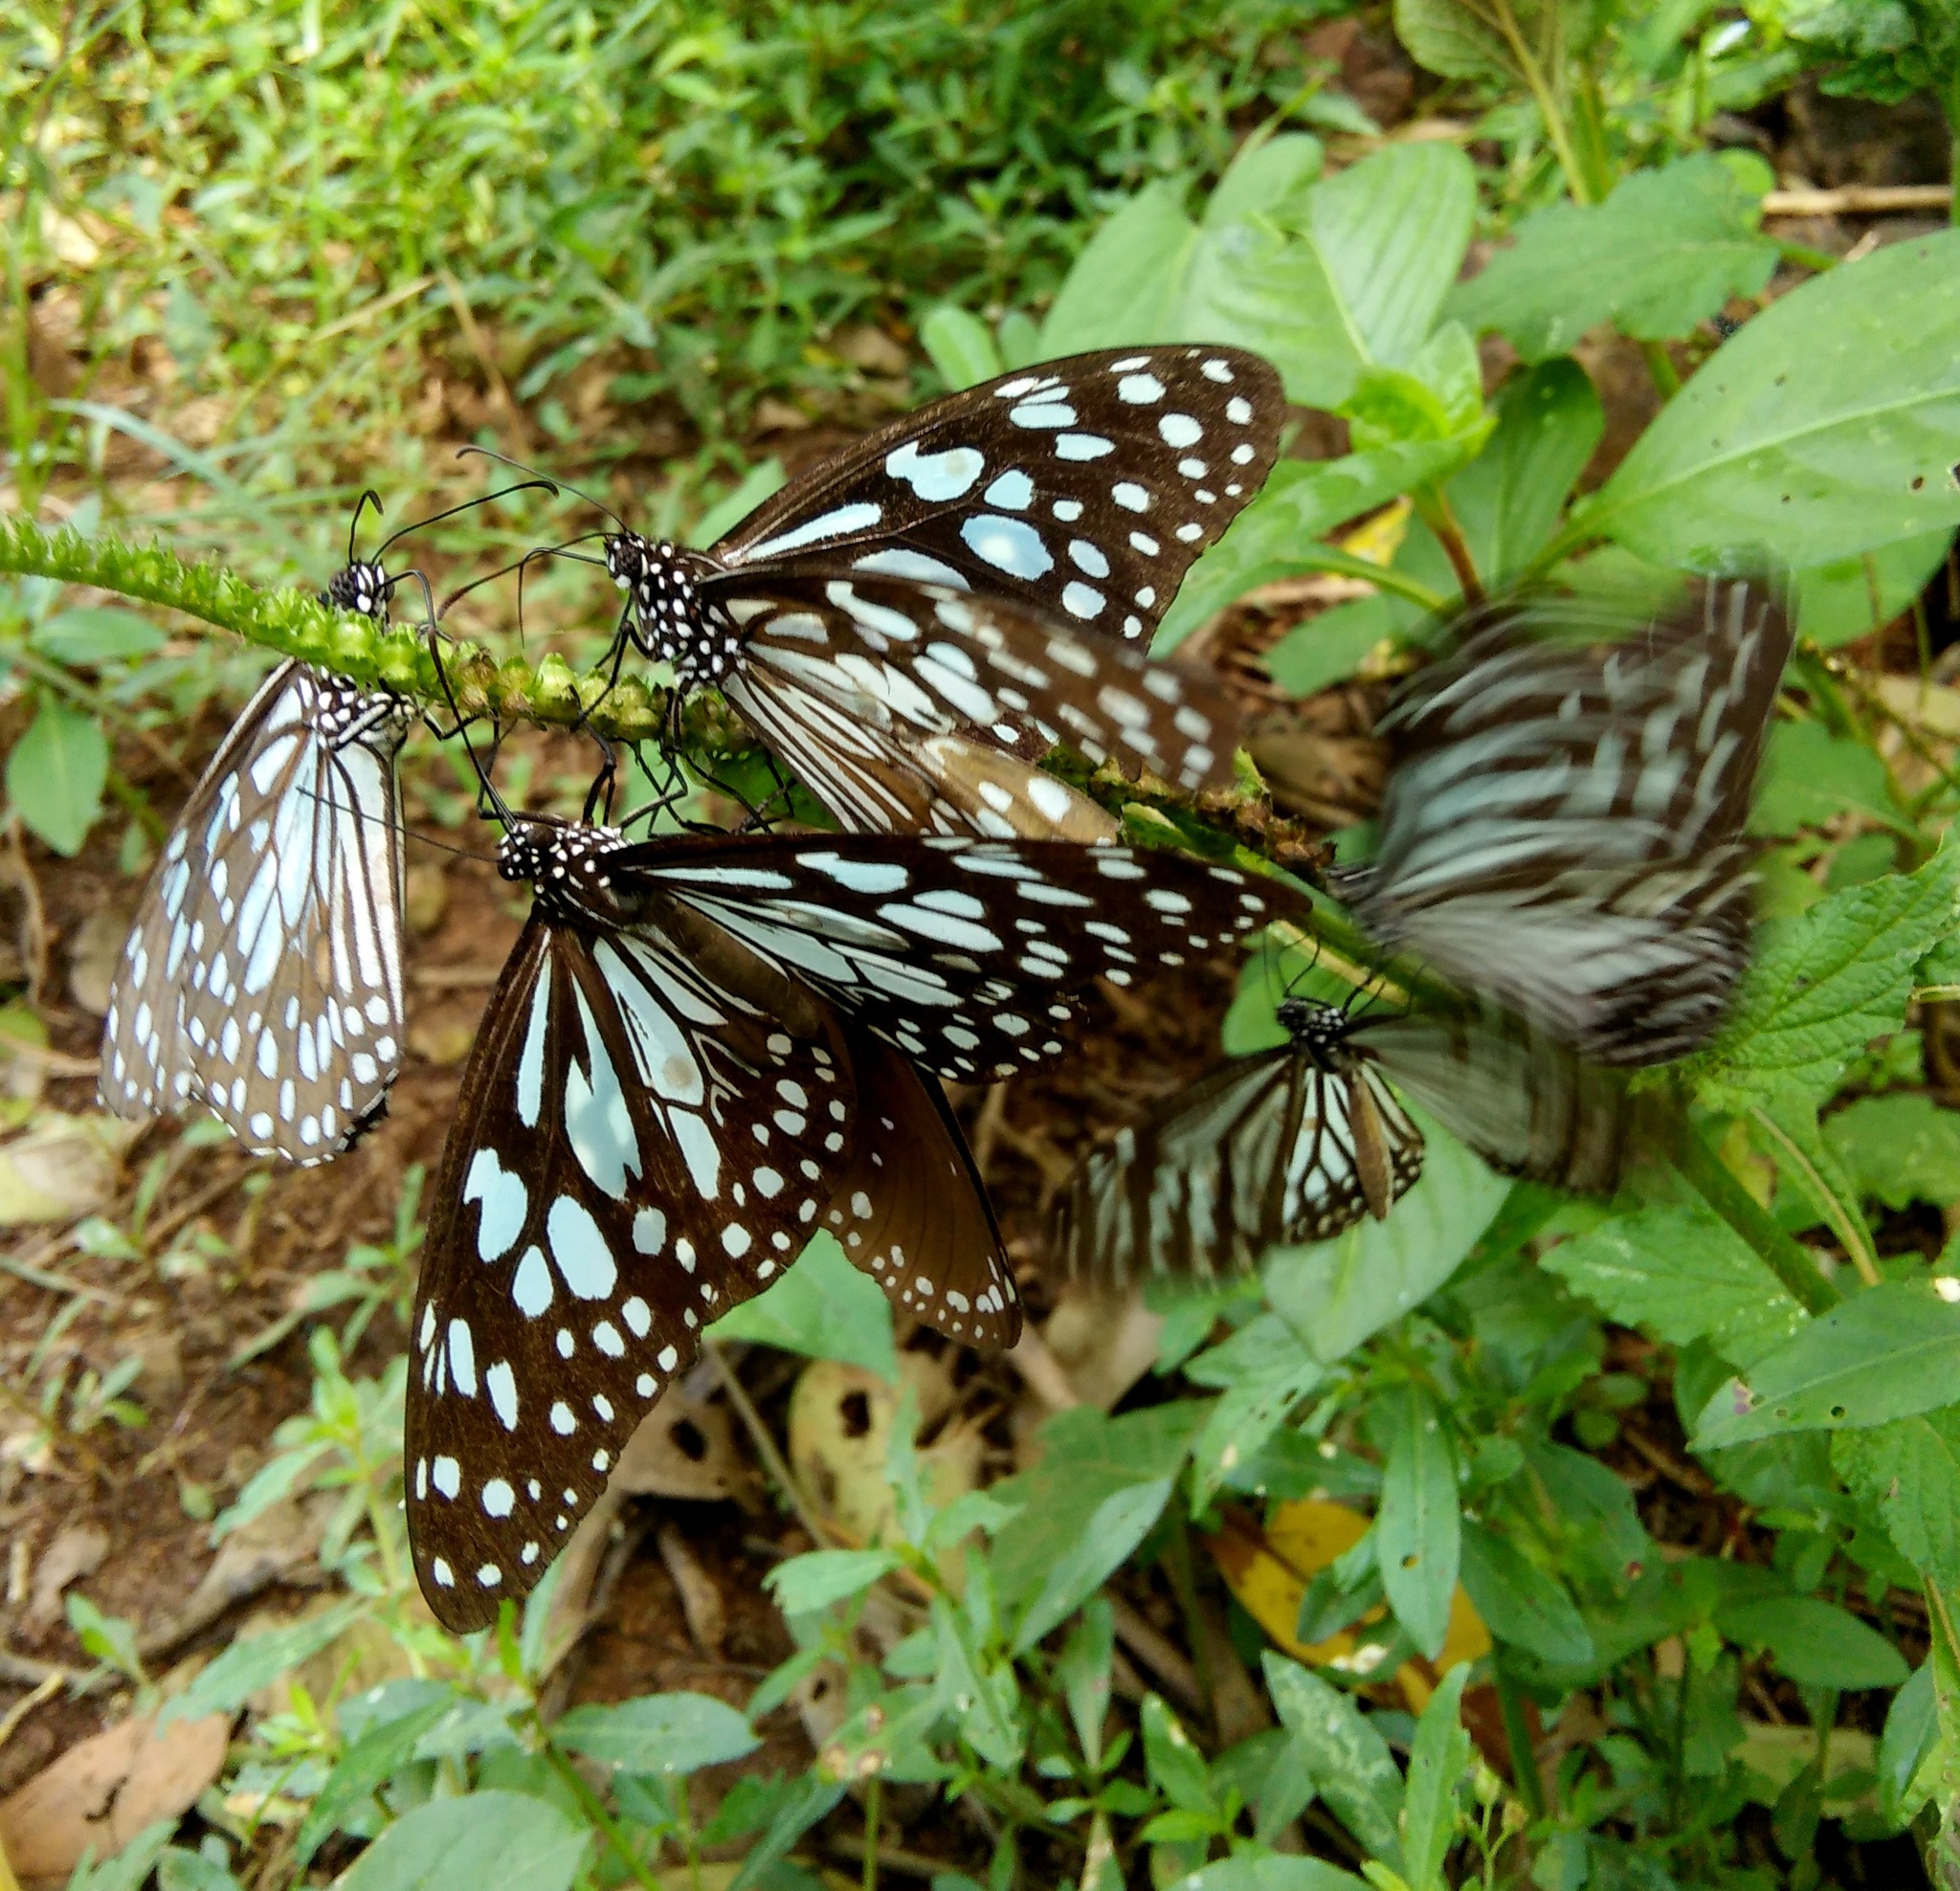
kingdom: Animalia
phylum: Arthropoda
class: Insecta
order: Lepidoptera
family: Nymphalidae
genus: Tirumala
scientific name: Tirumala limniace
